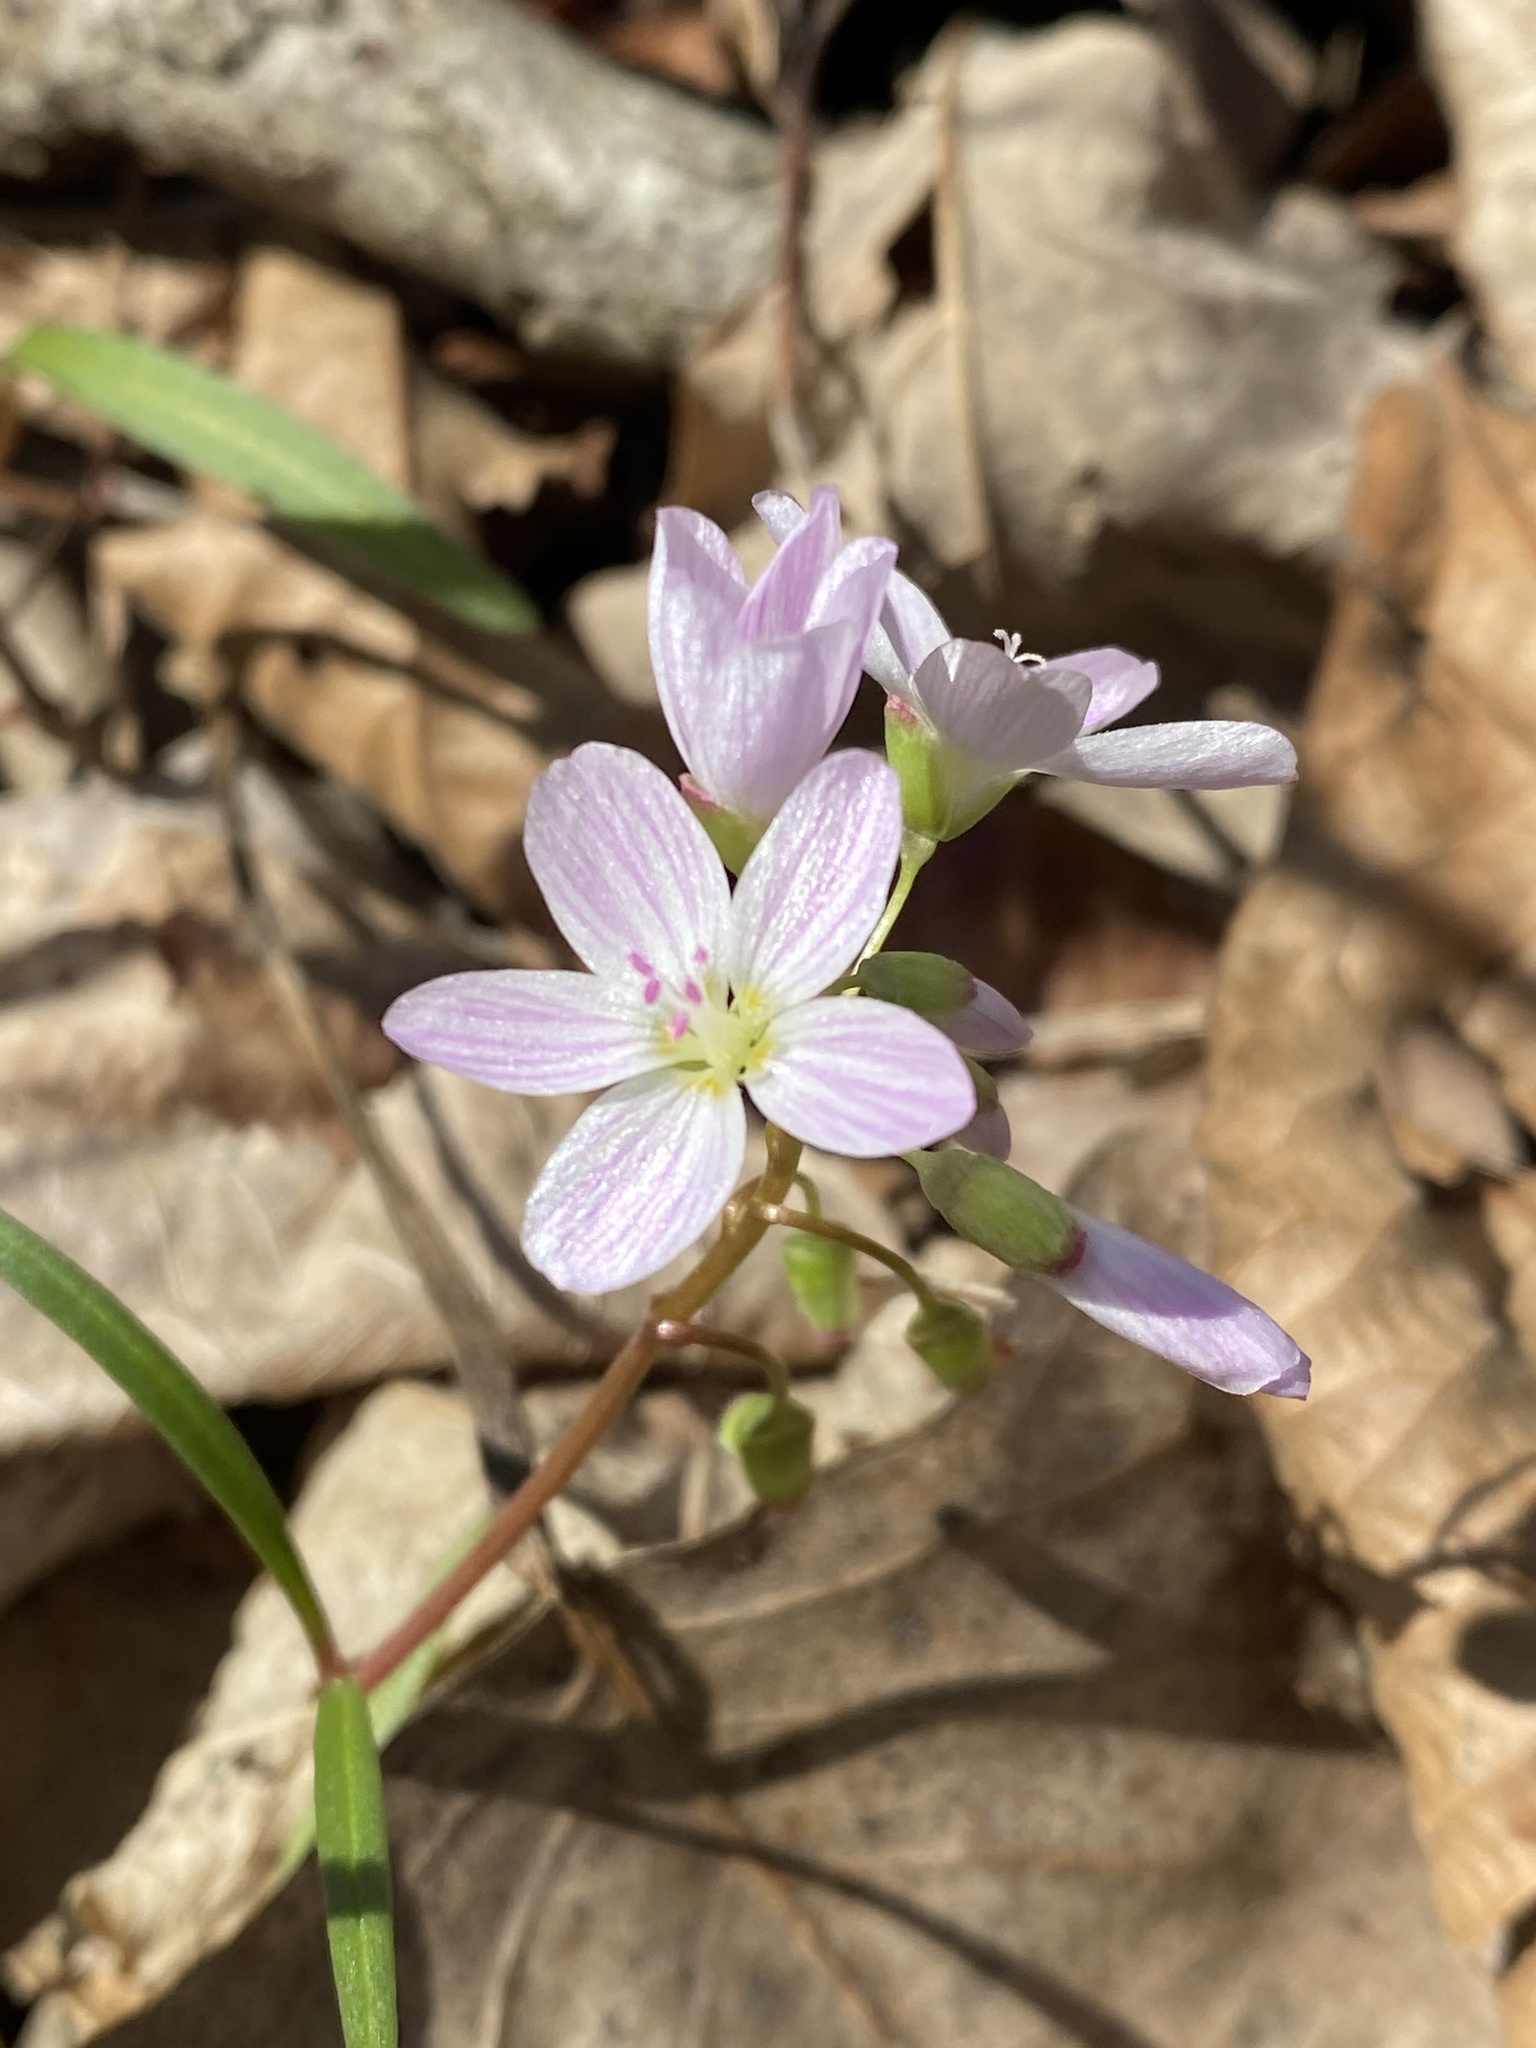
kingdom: Plantae
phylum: Tracheophyta
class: Magnoliopsida
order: Caryophyllales
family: Montiaceae
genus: Claytonia
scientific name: Claytonia virginica
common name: Virginia springbeauty
